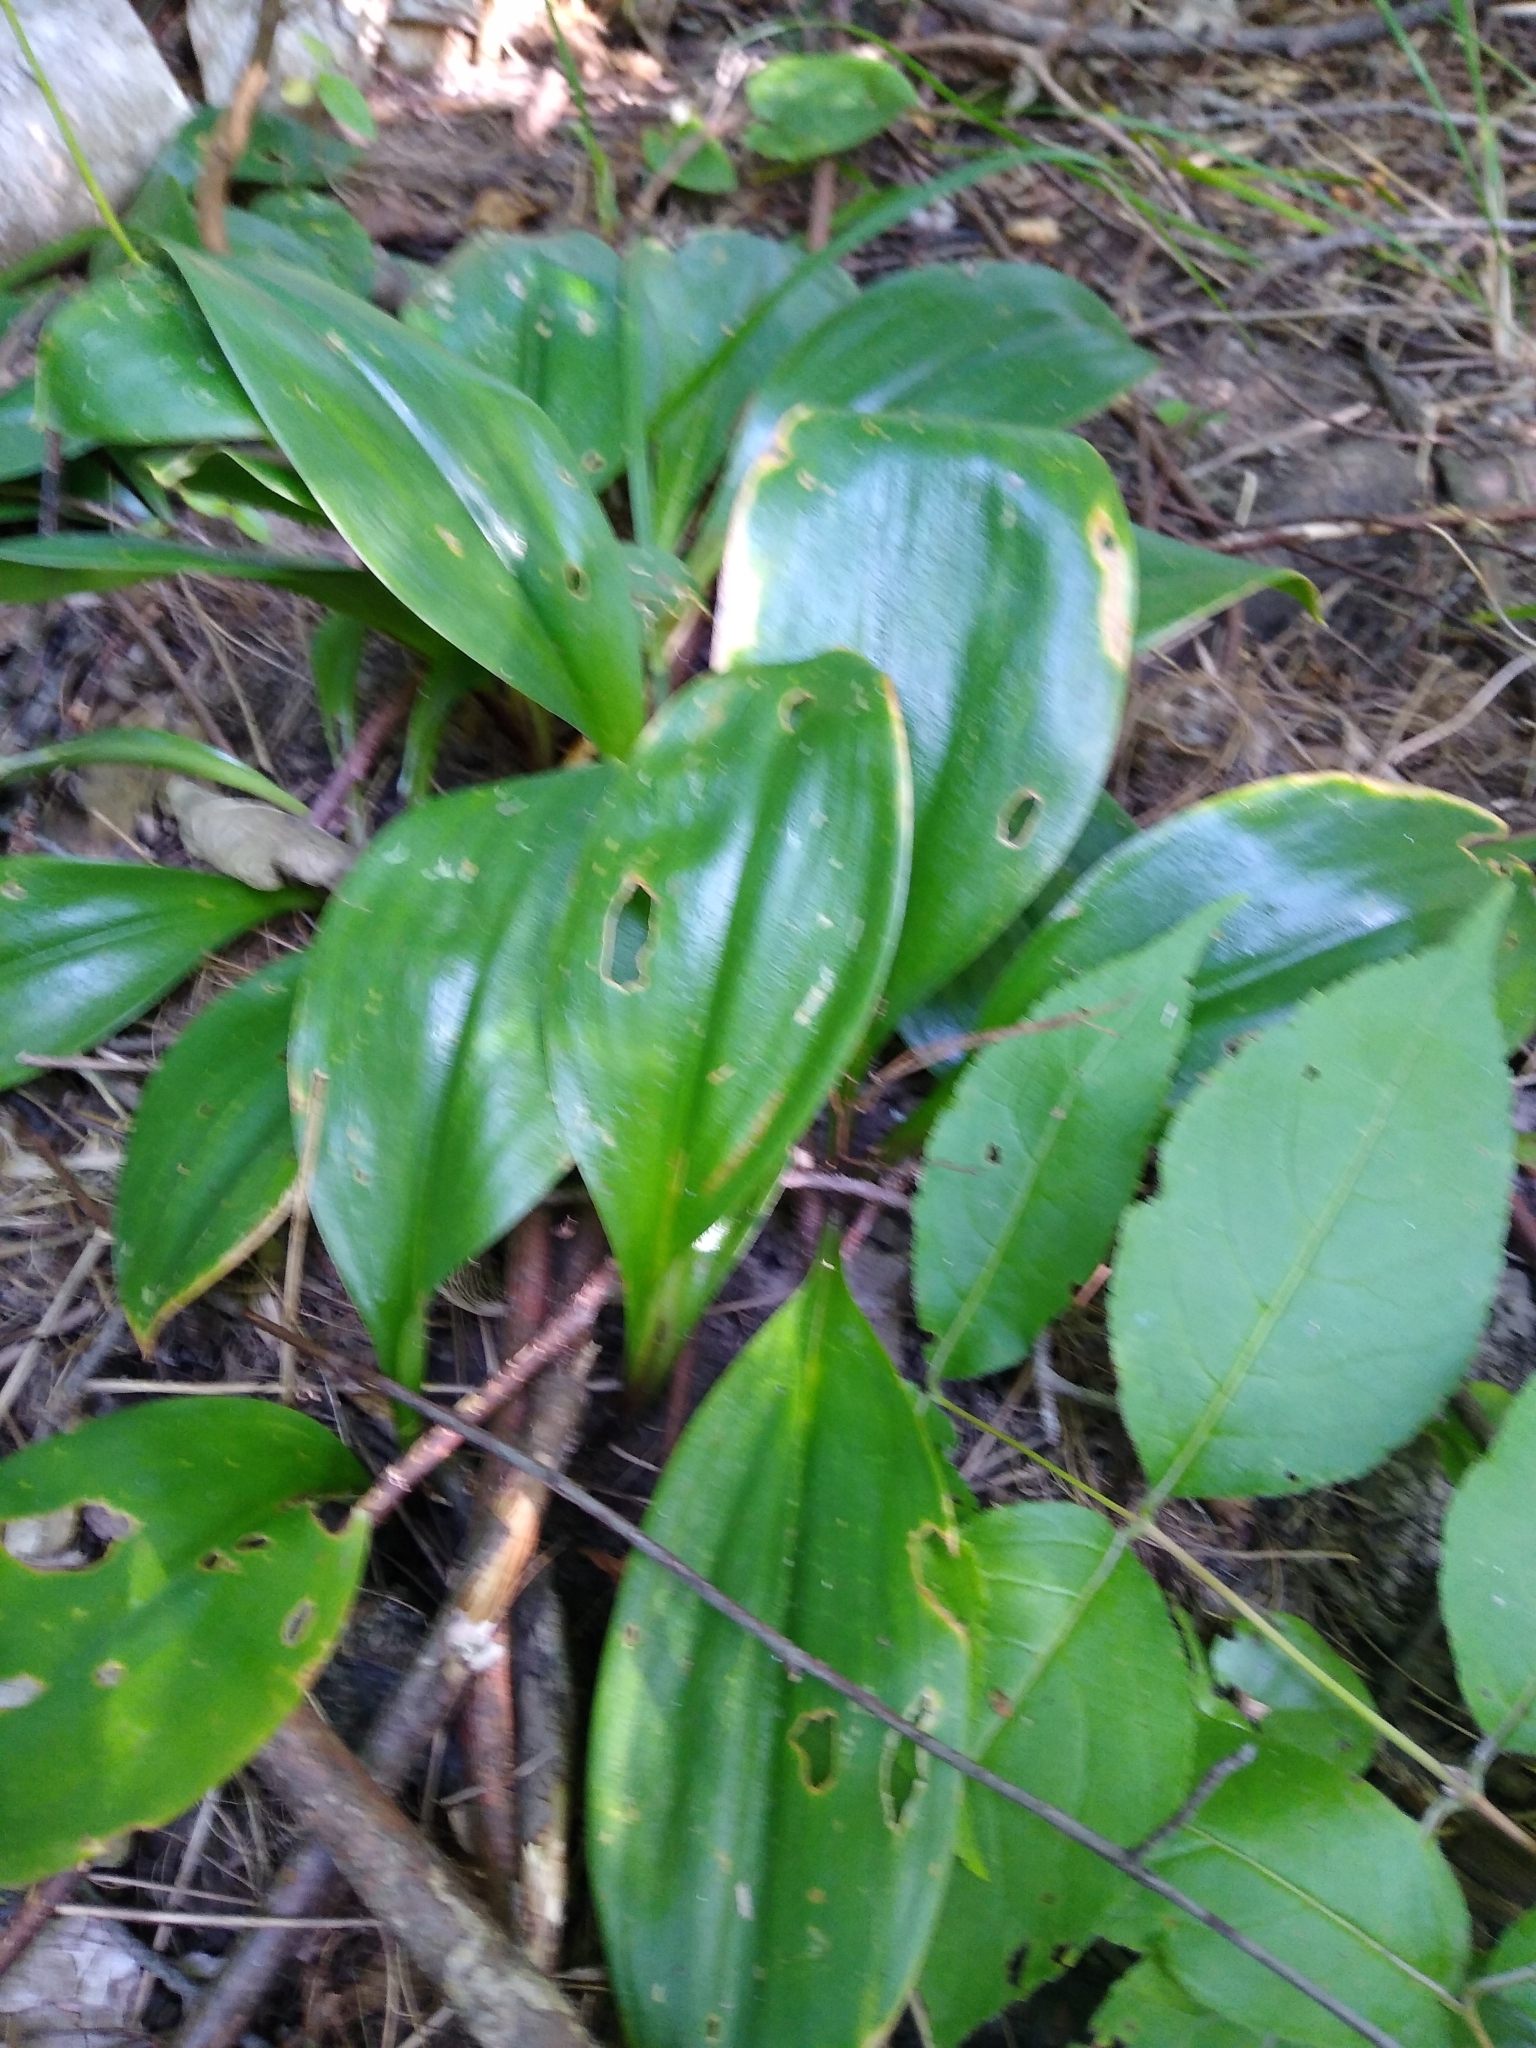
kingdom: Plantae
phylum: Tracheophyta
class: Liliopsida
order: Liliales
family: Liliaceae
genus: Clintonia
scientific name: Clintonia borealis
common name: Yellow clintonia
